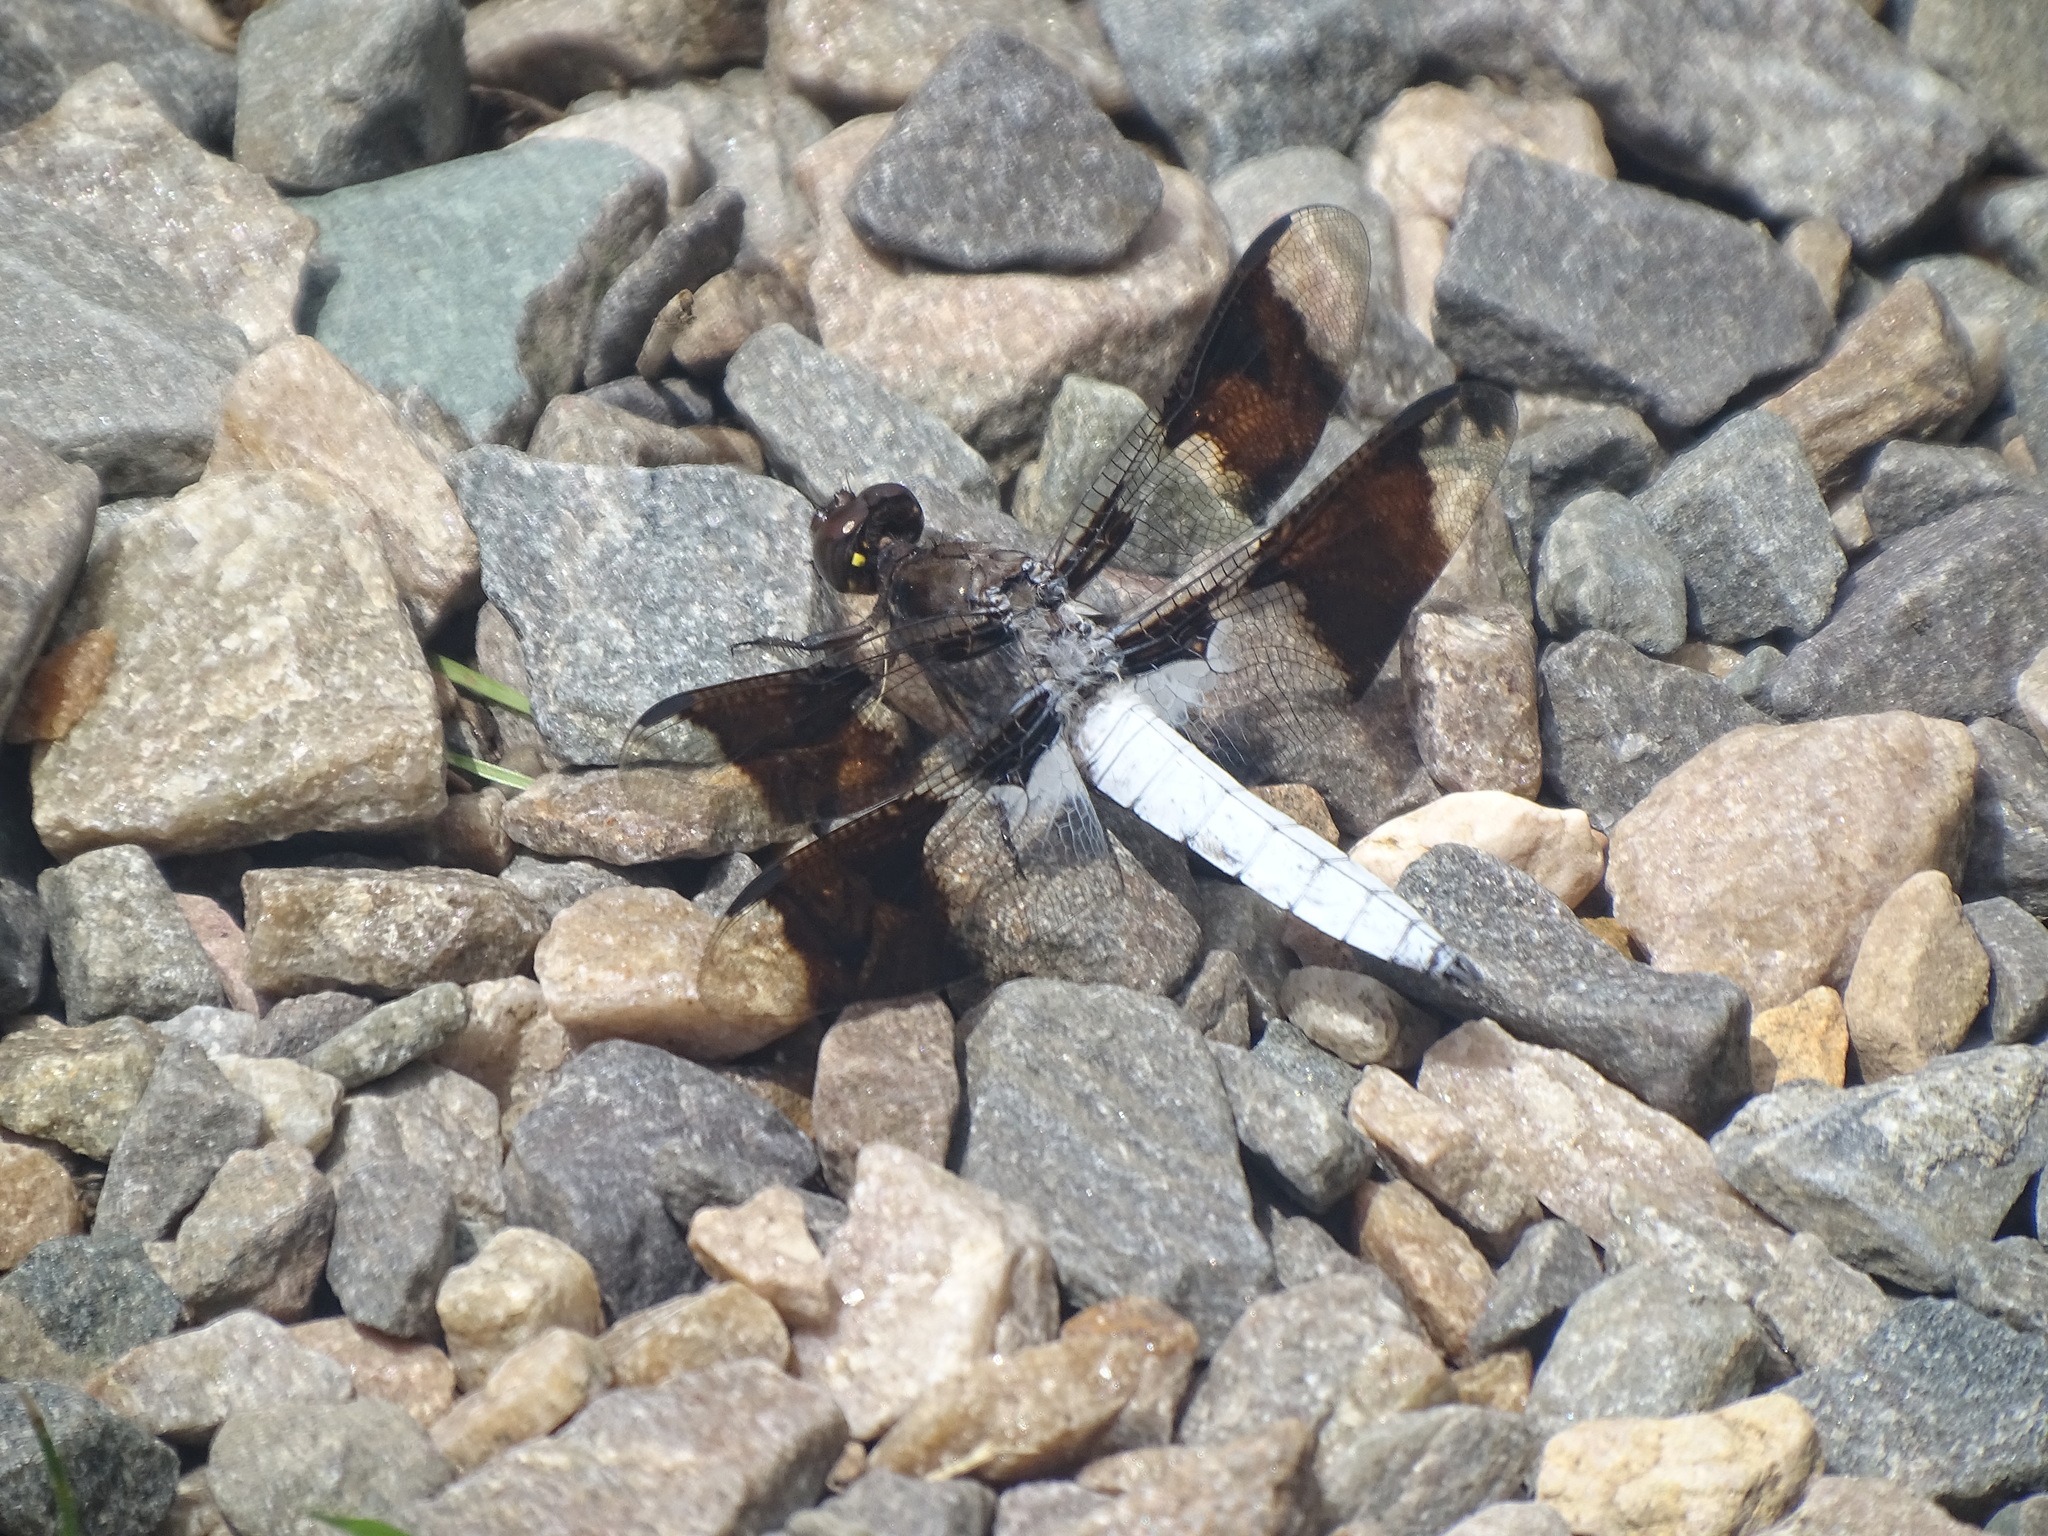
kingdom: Animalia
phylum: Arthropoda
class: Insecta
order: Odonata
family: Libellulidae
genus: Plathemis
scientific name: Plathemis lydia
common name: Common whitetail
